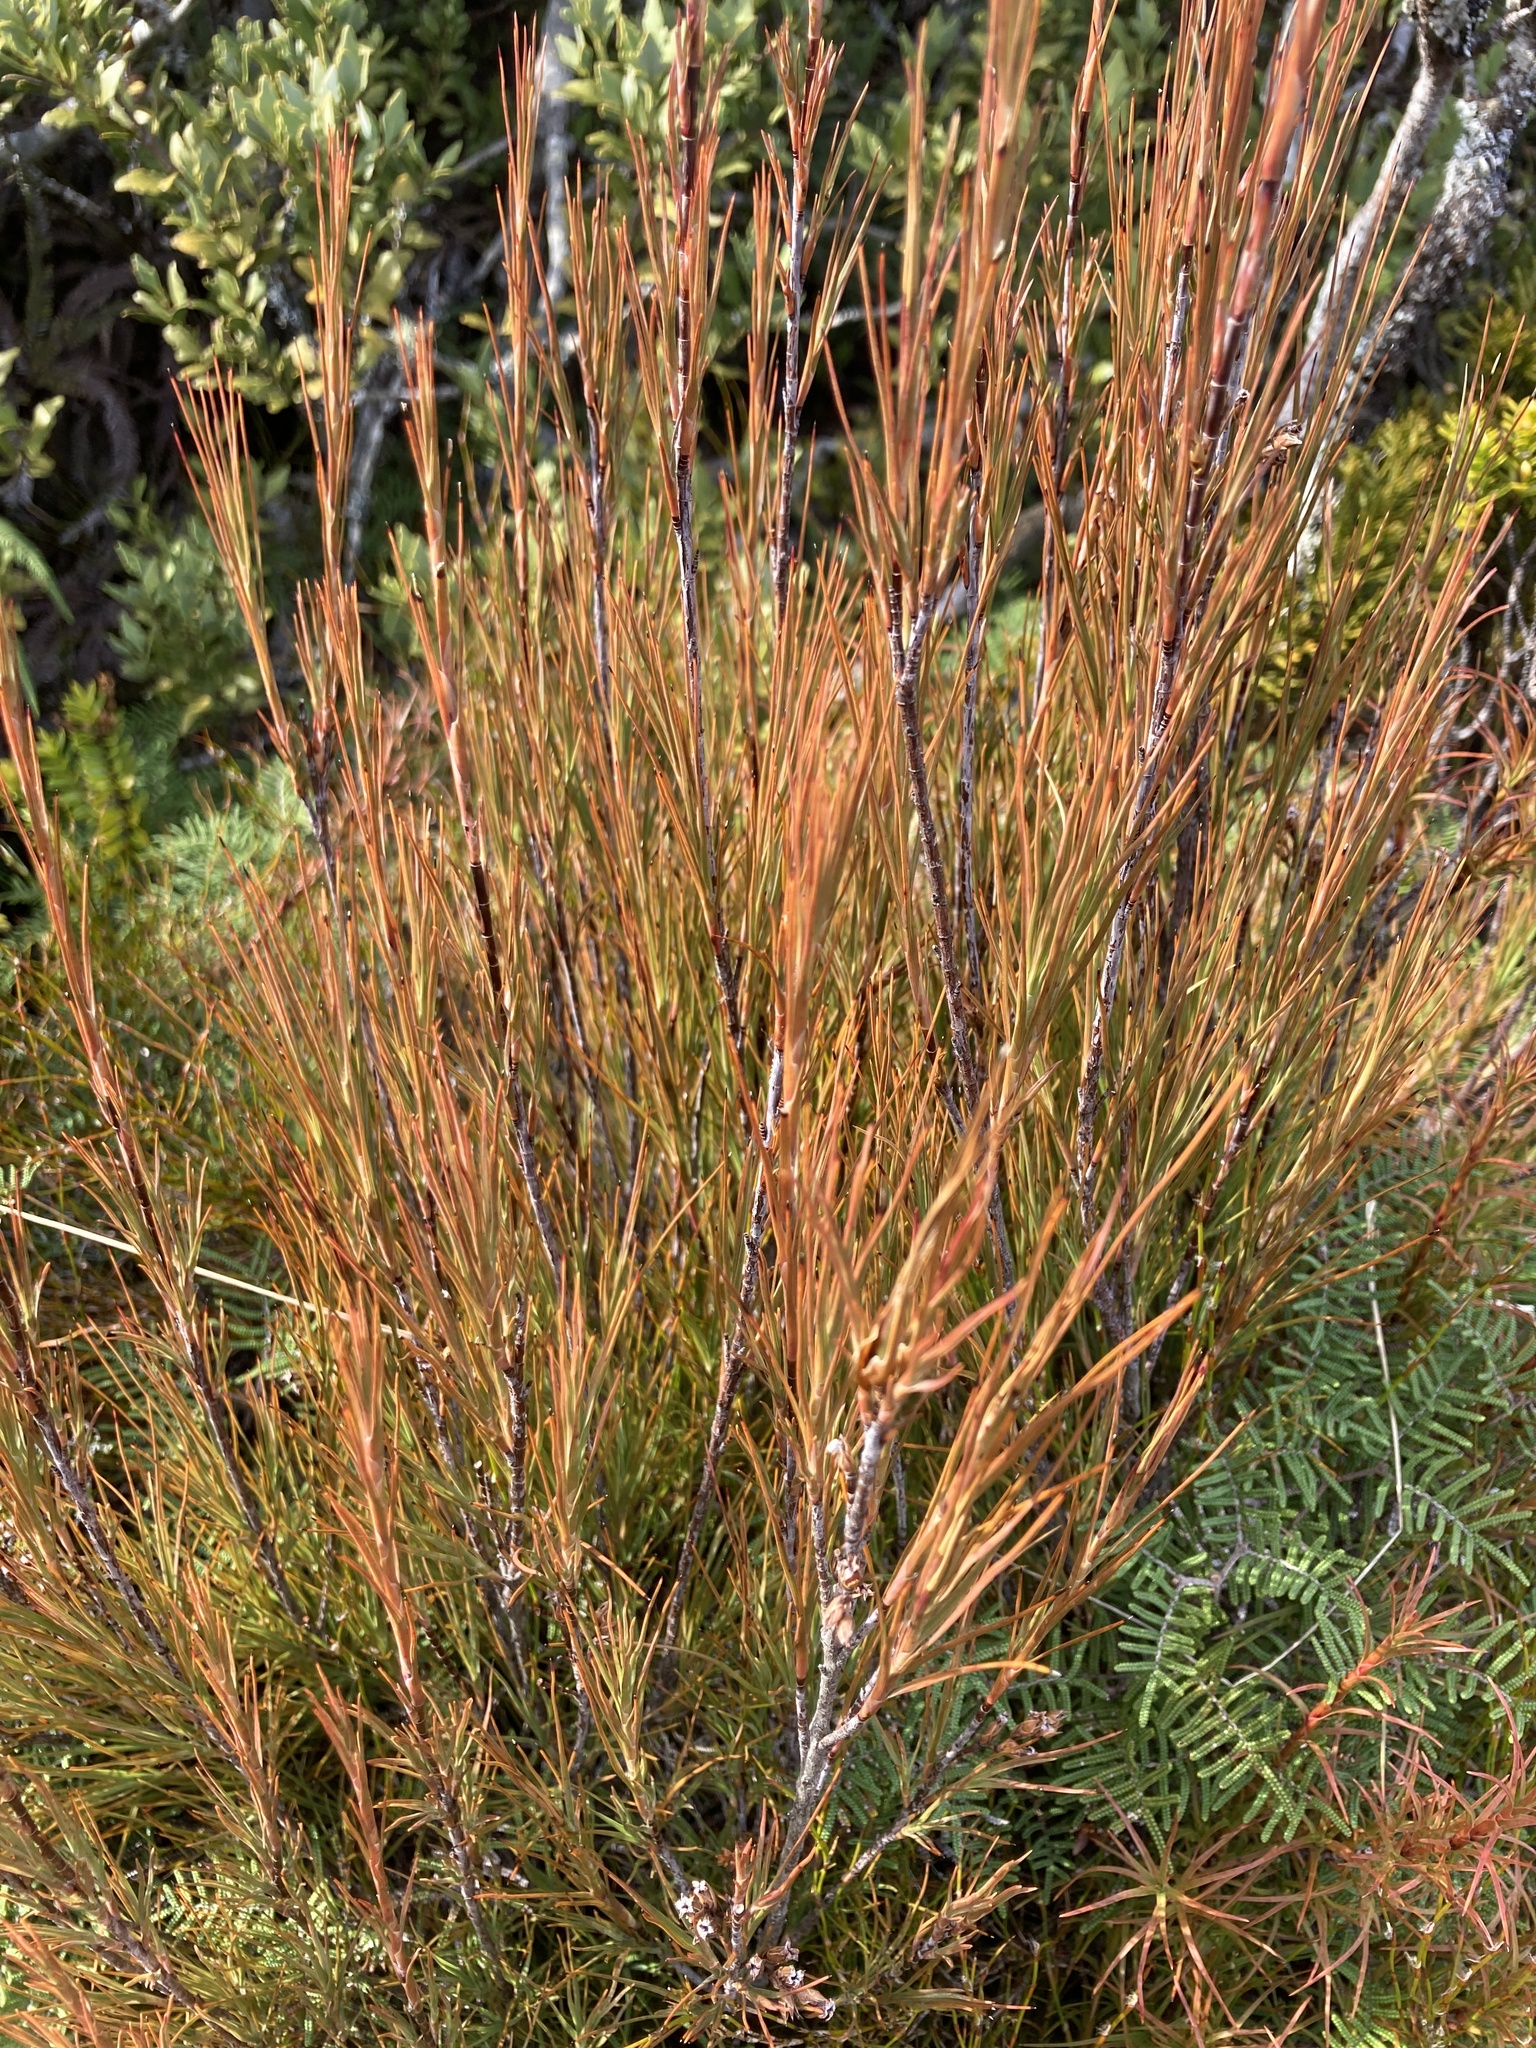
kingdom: Plantae
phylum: Tracheophyta
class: Magnoliopsida
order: Ericales
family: Ericaceae
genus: Dracophyllum
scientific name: Dracophyllum filifolium
